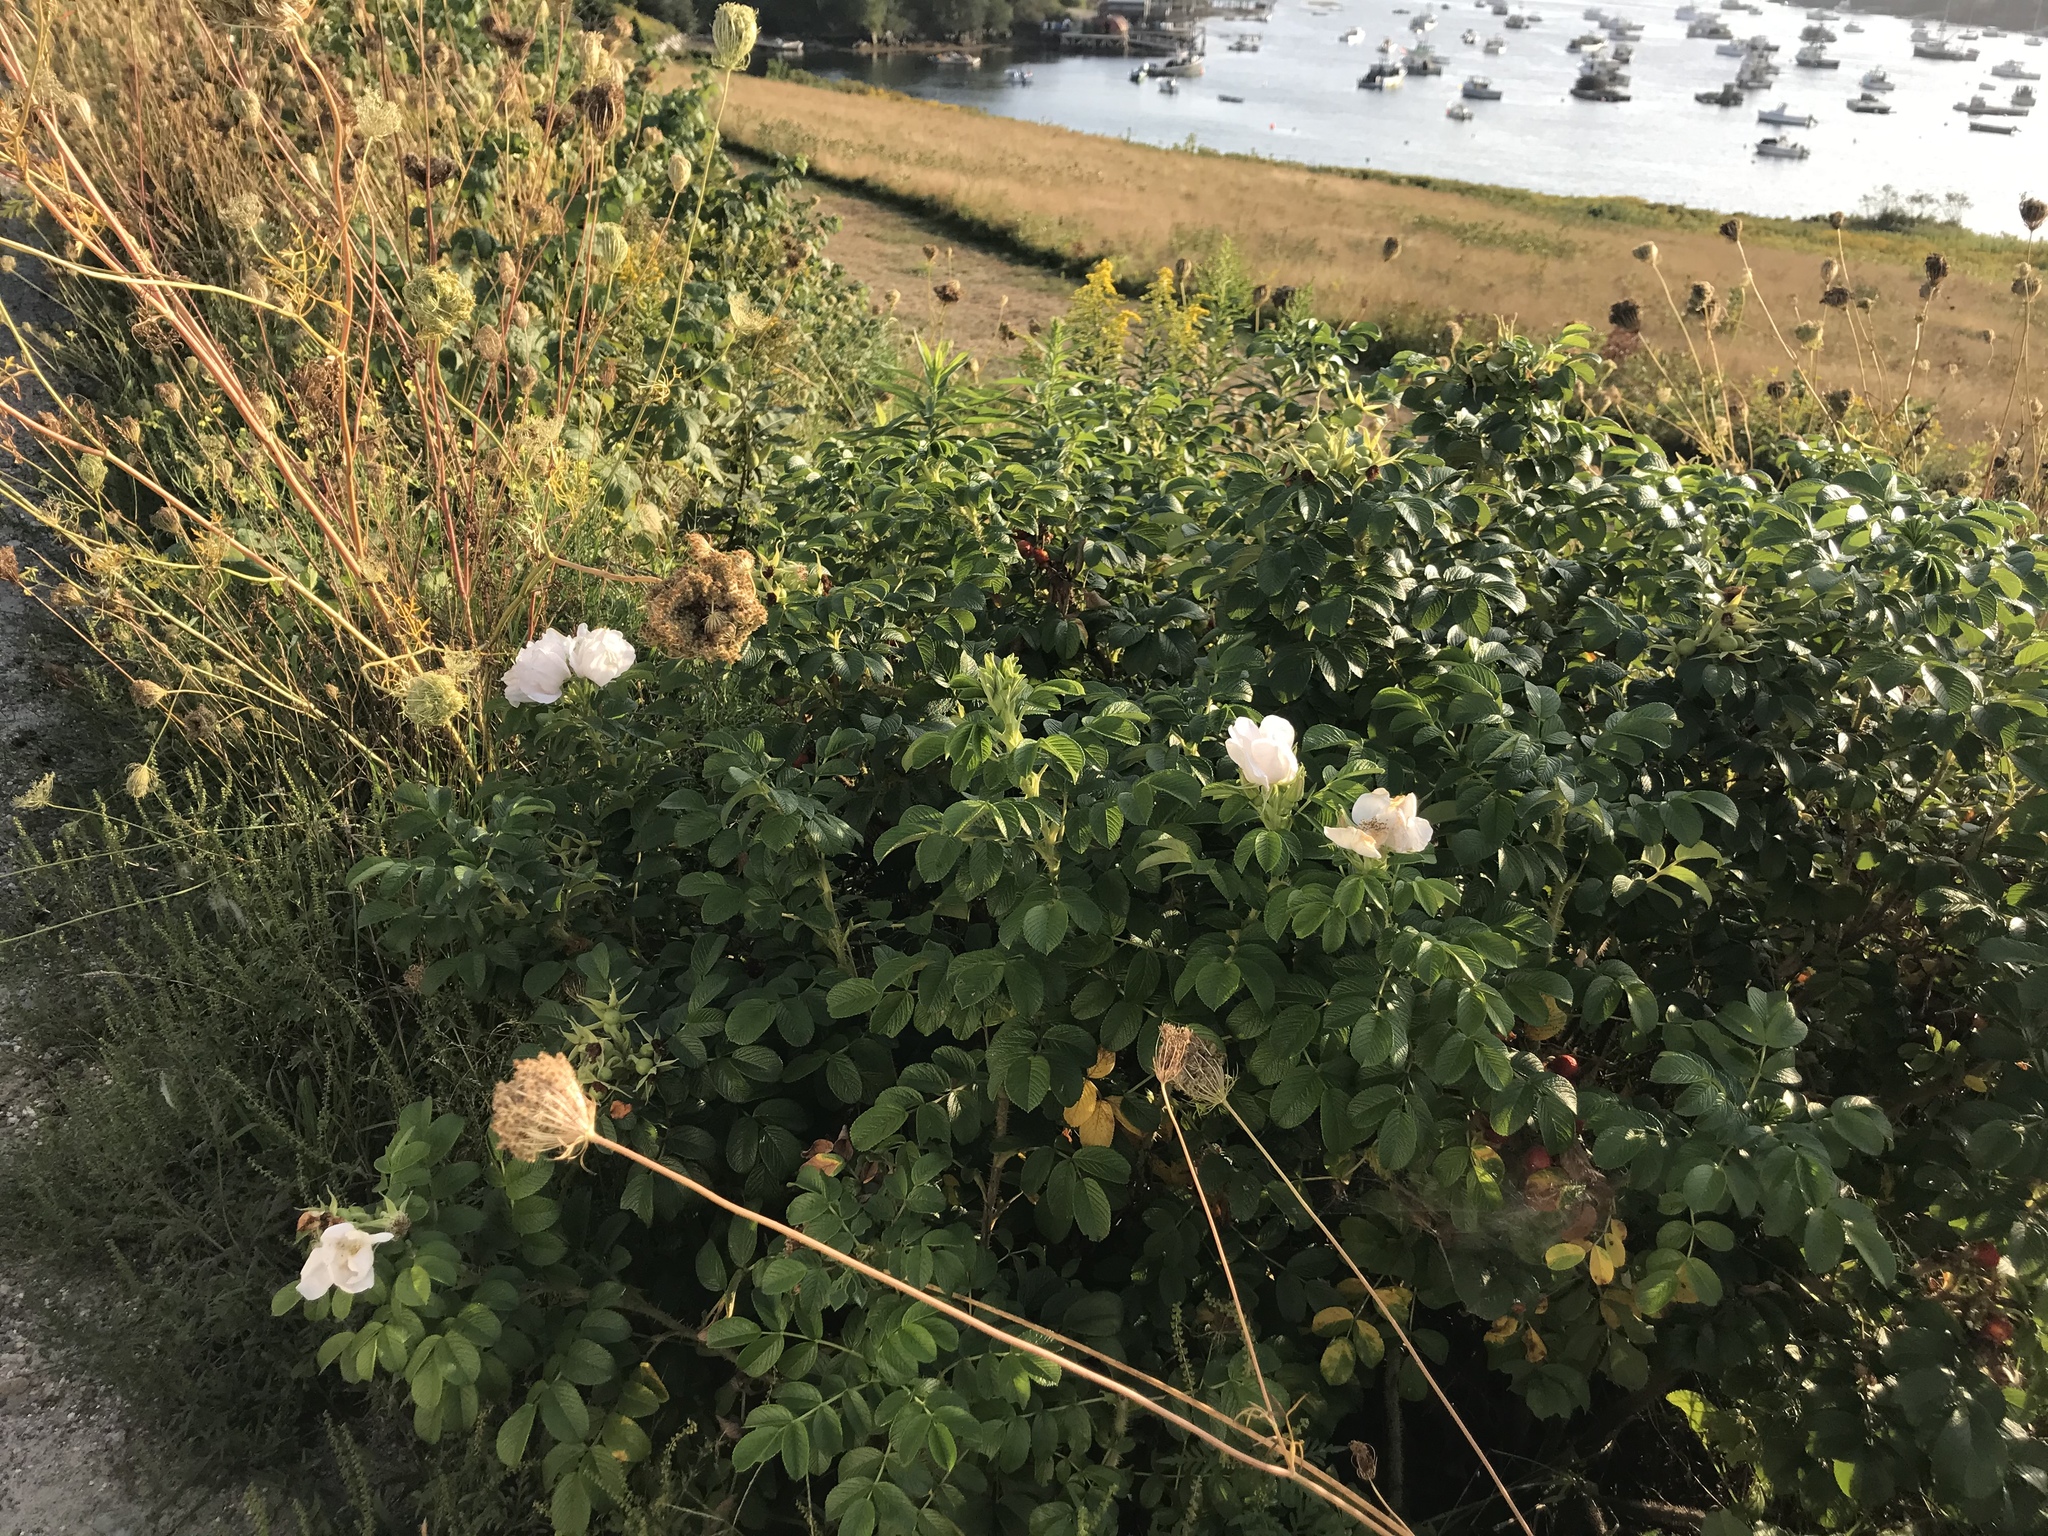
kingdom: Plantae
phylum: Tracheophyta
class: Magnoliopsida
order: Rosales
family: Rosaceae
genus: Rosa
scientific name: Rosa rugosa
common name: Japanese rose
